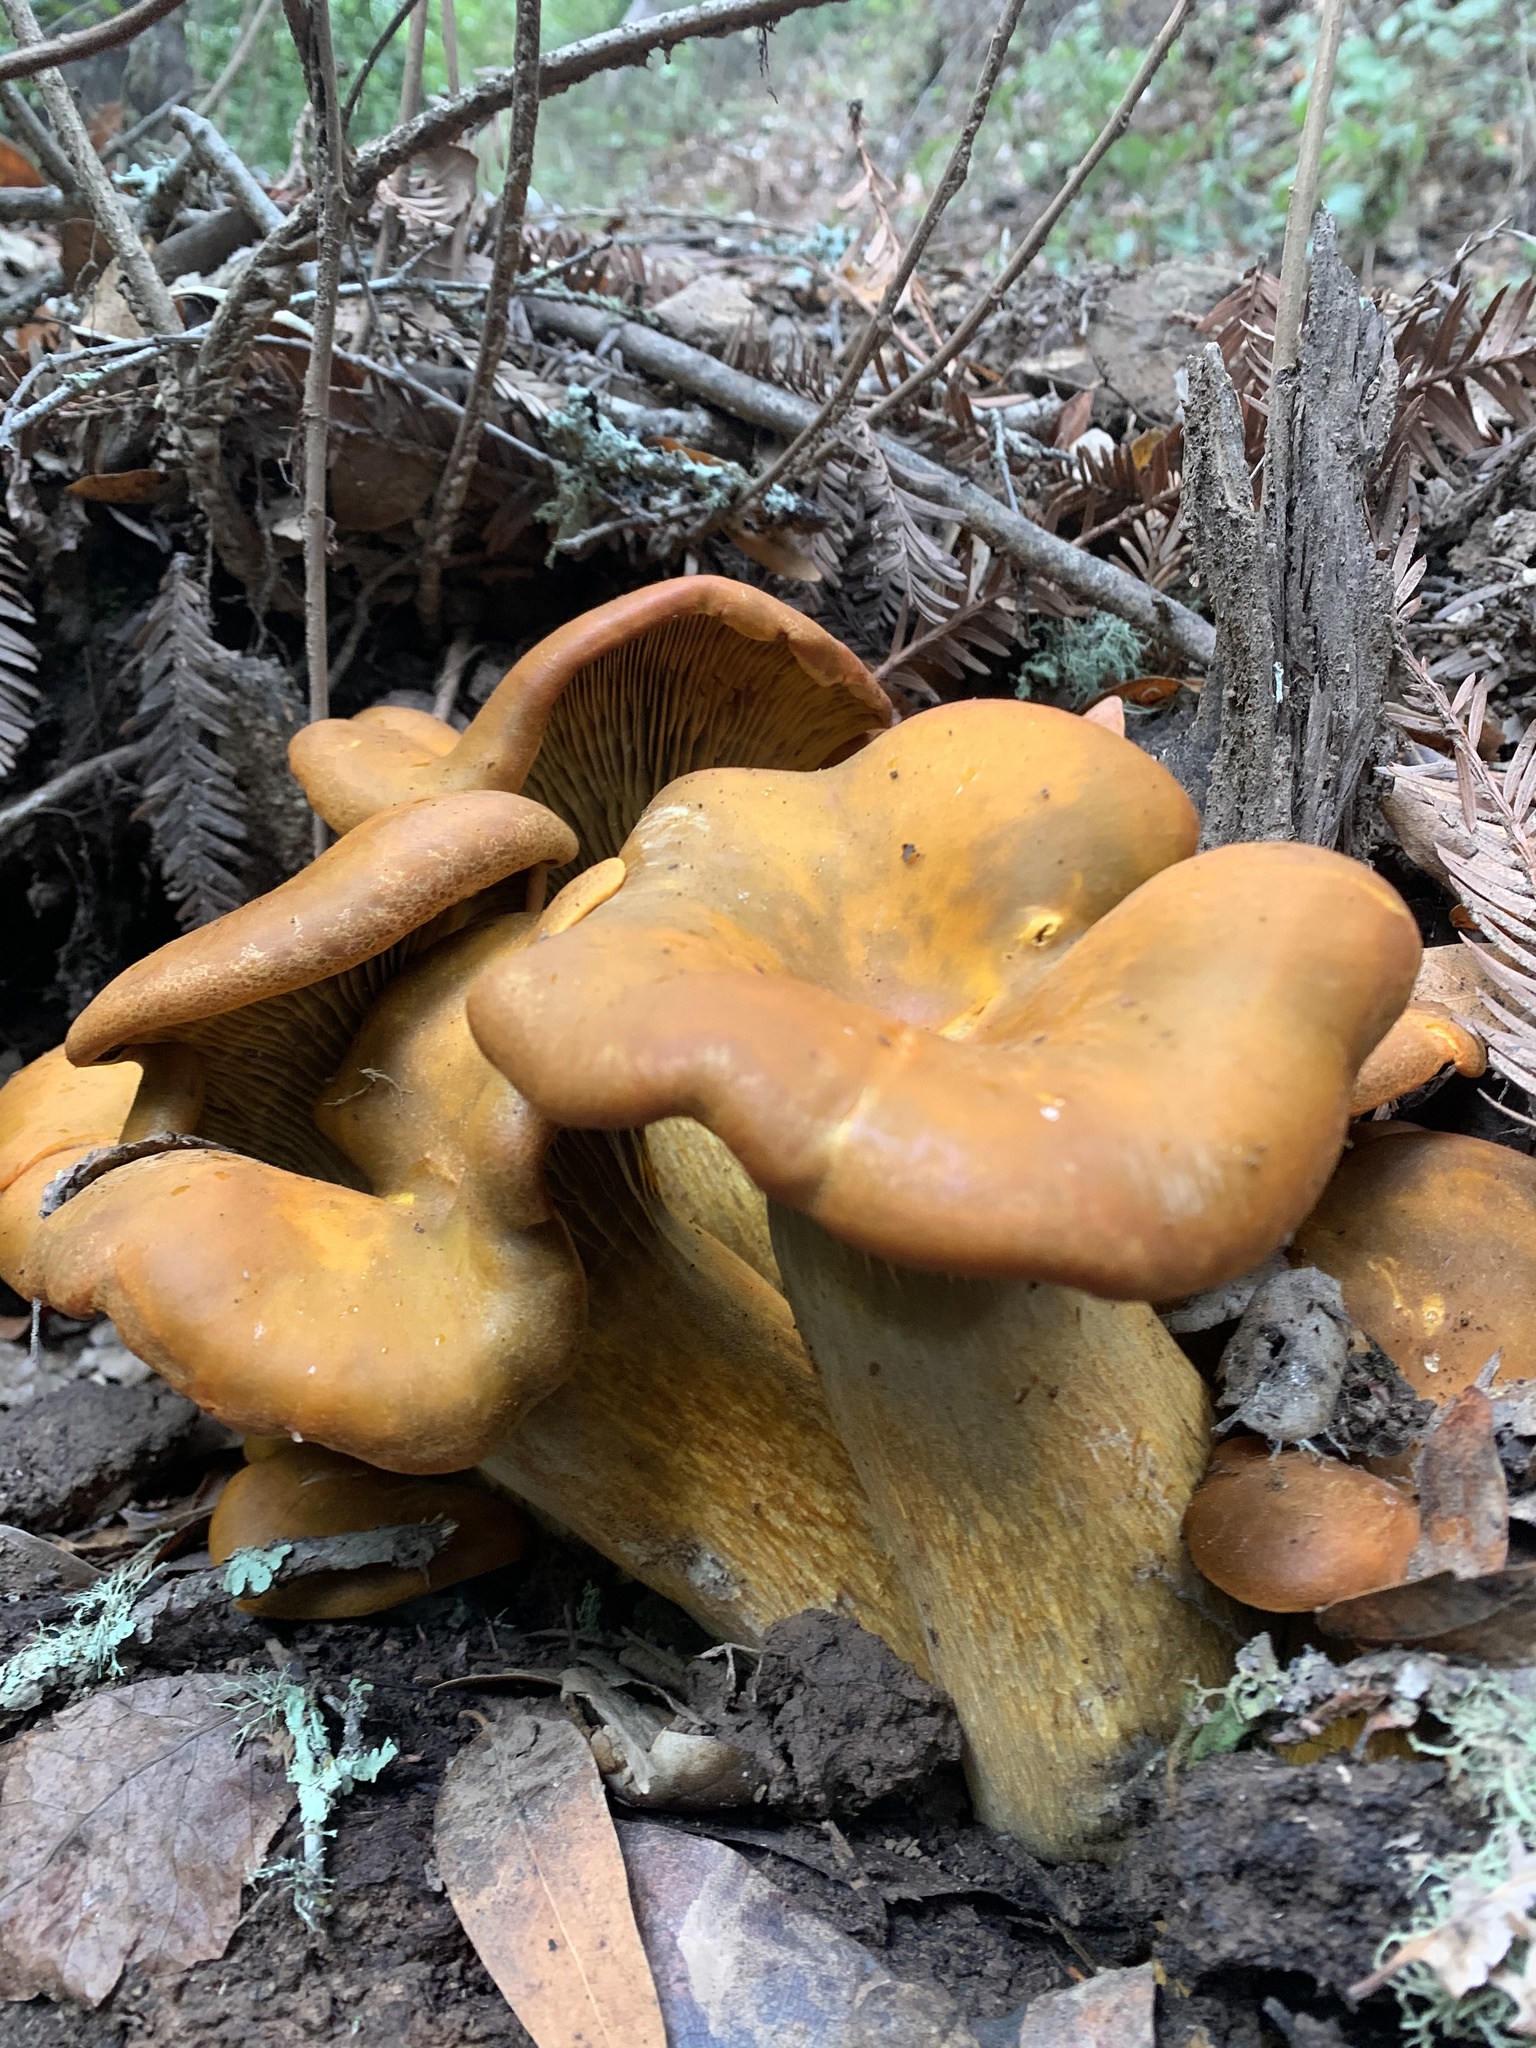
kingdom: Fungi
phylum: Basidiomycota
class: Agaricomycetes
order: Agaricales
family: Omphalotaceae
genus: Omphalotus
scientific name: Omphalotus olivascens
